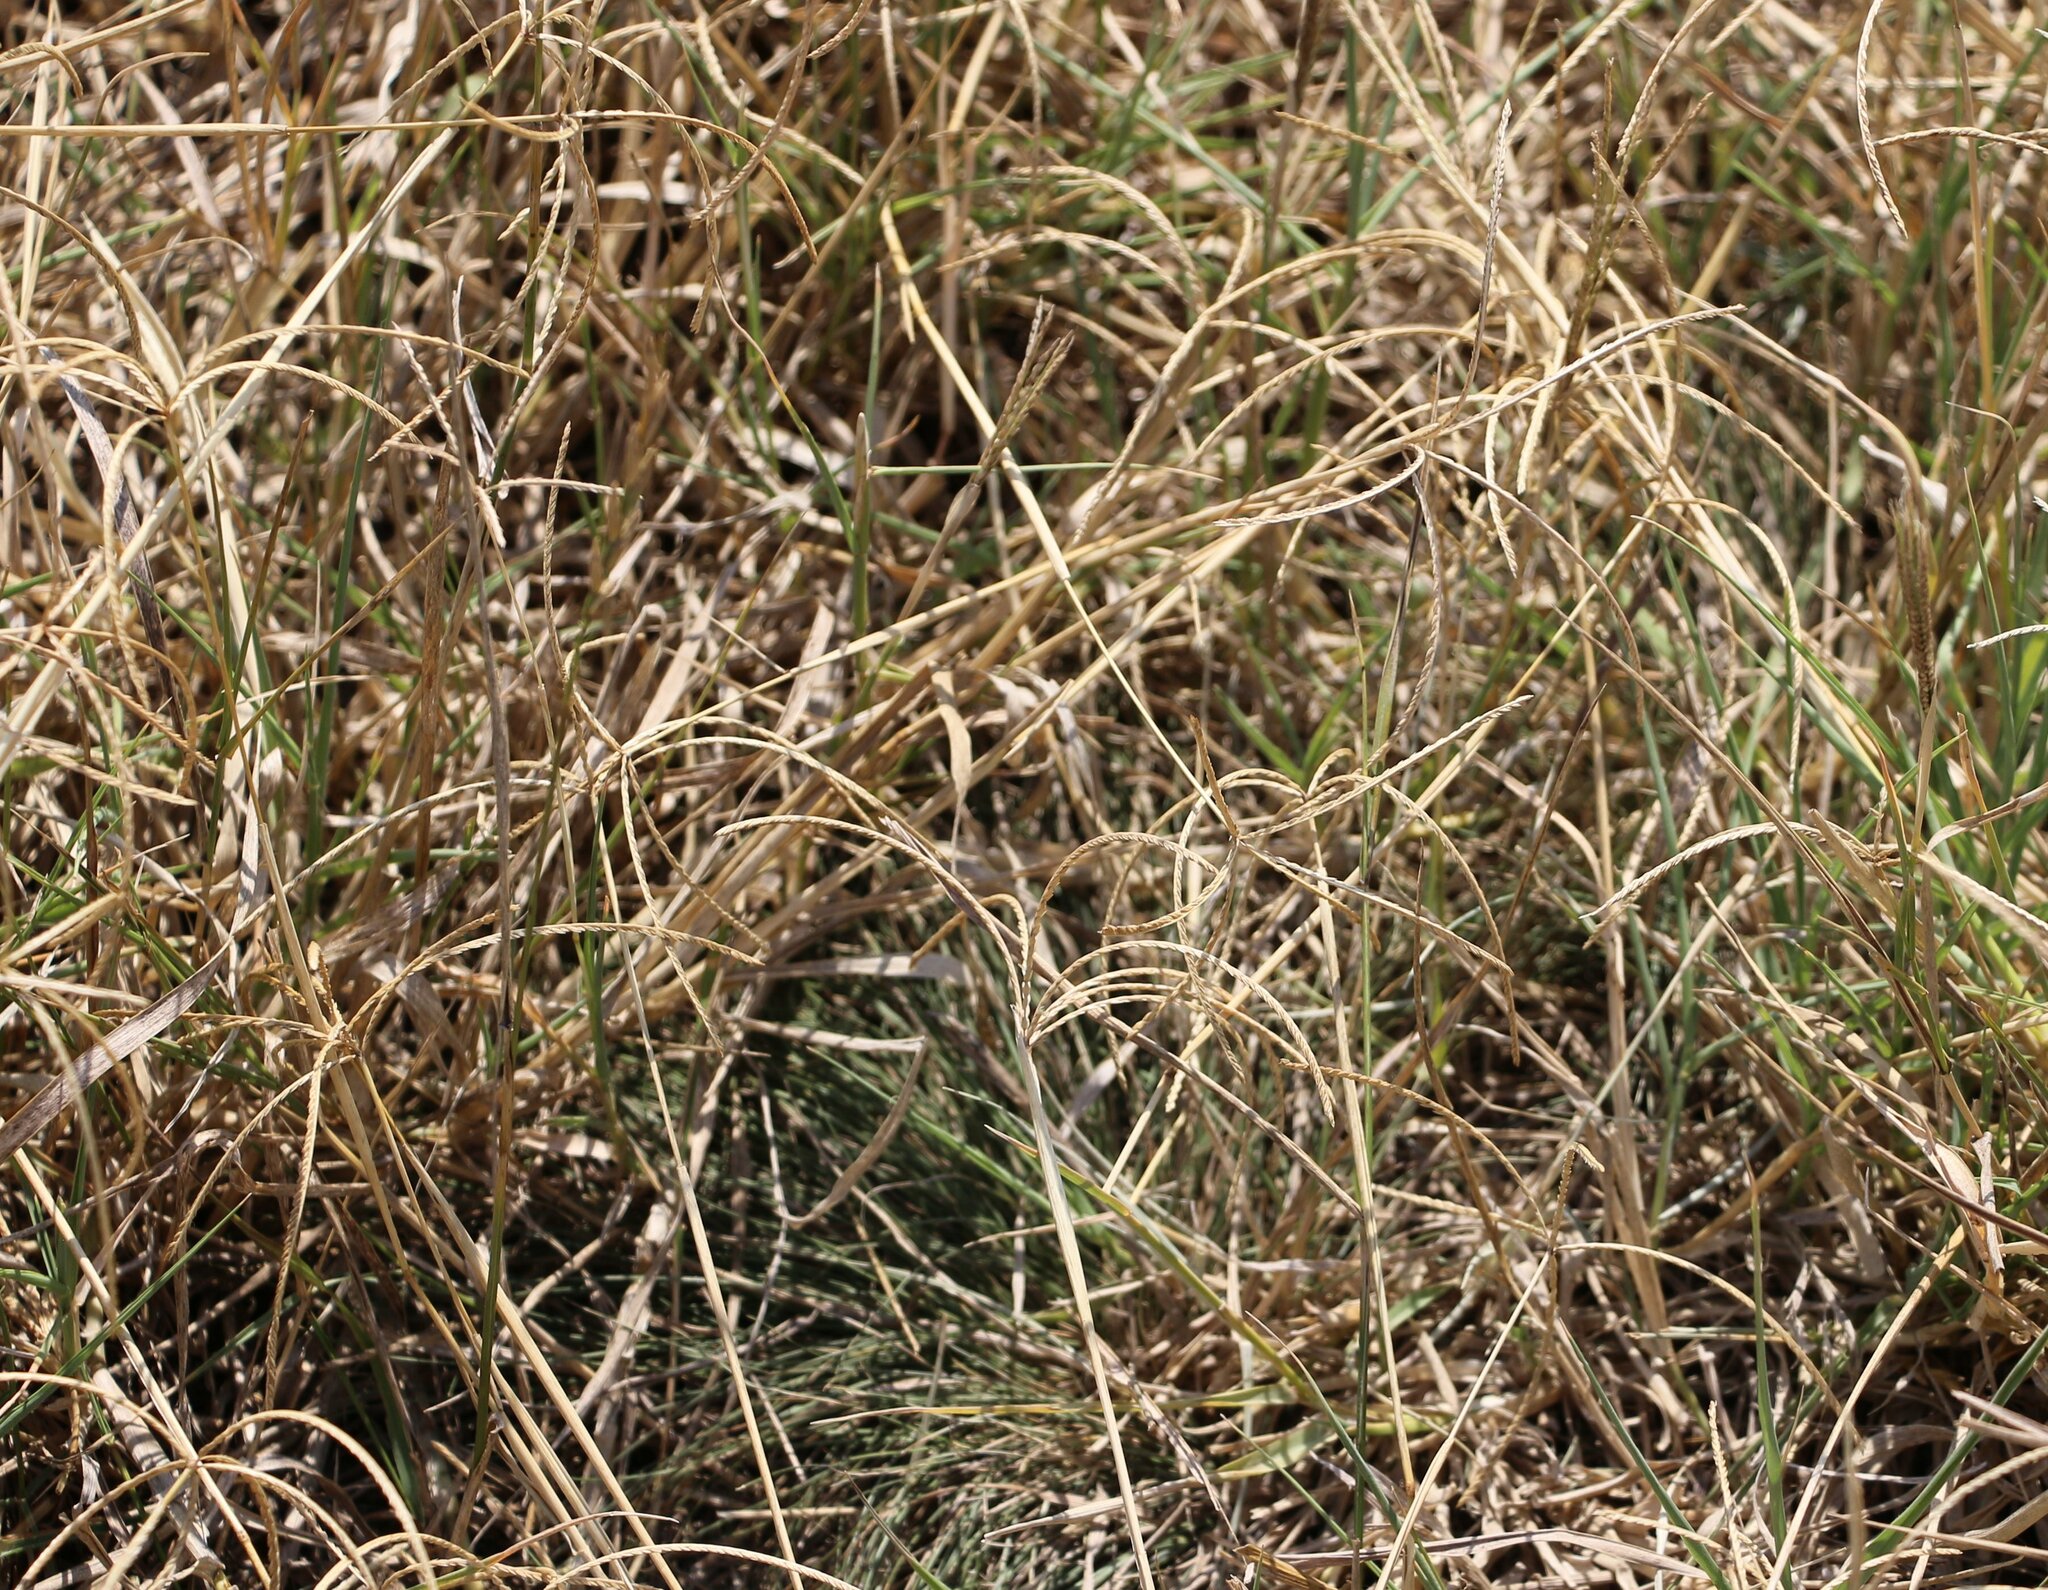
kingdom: Plantae
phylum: Tracheophyta
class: Liliopsida
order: Poales
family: Poaceae
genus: Cynodon
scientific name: Cynodon dactylon
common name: Bermuda grass
